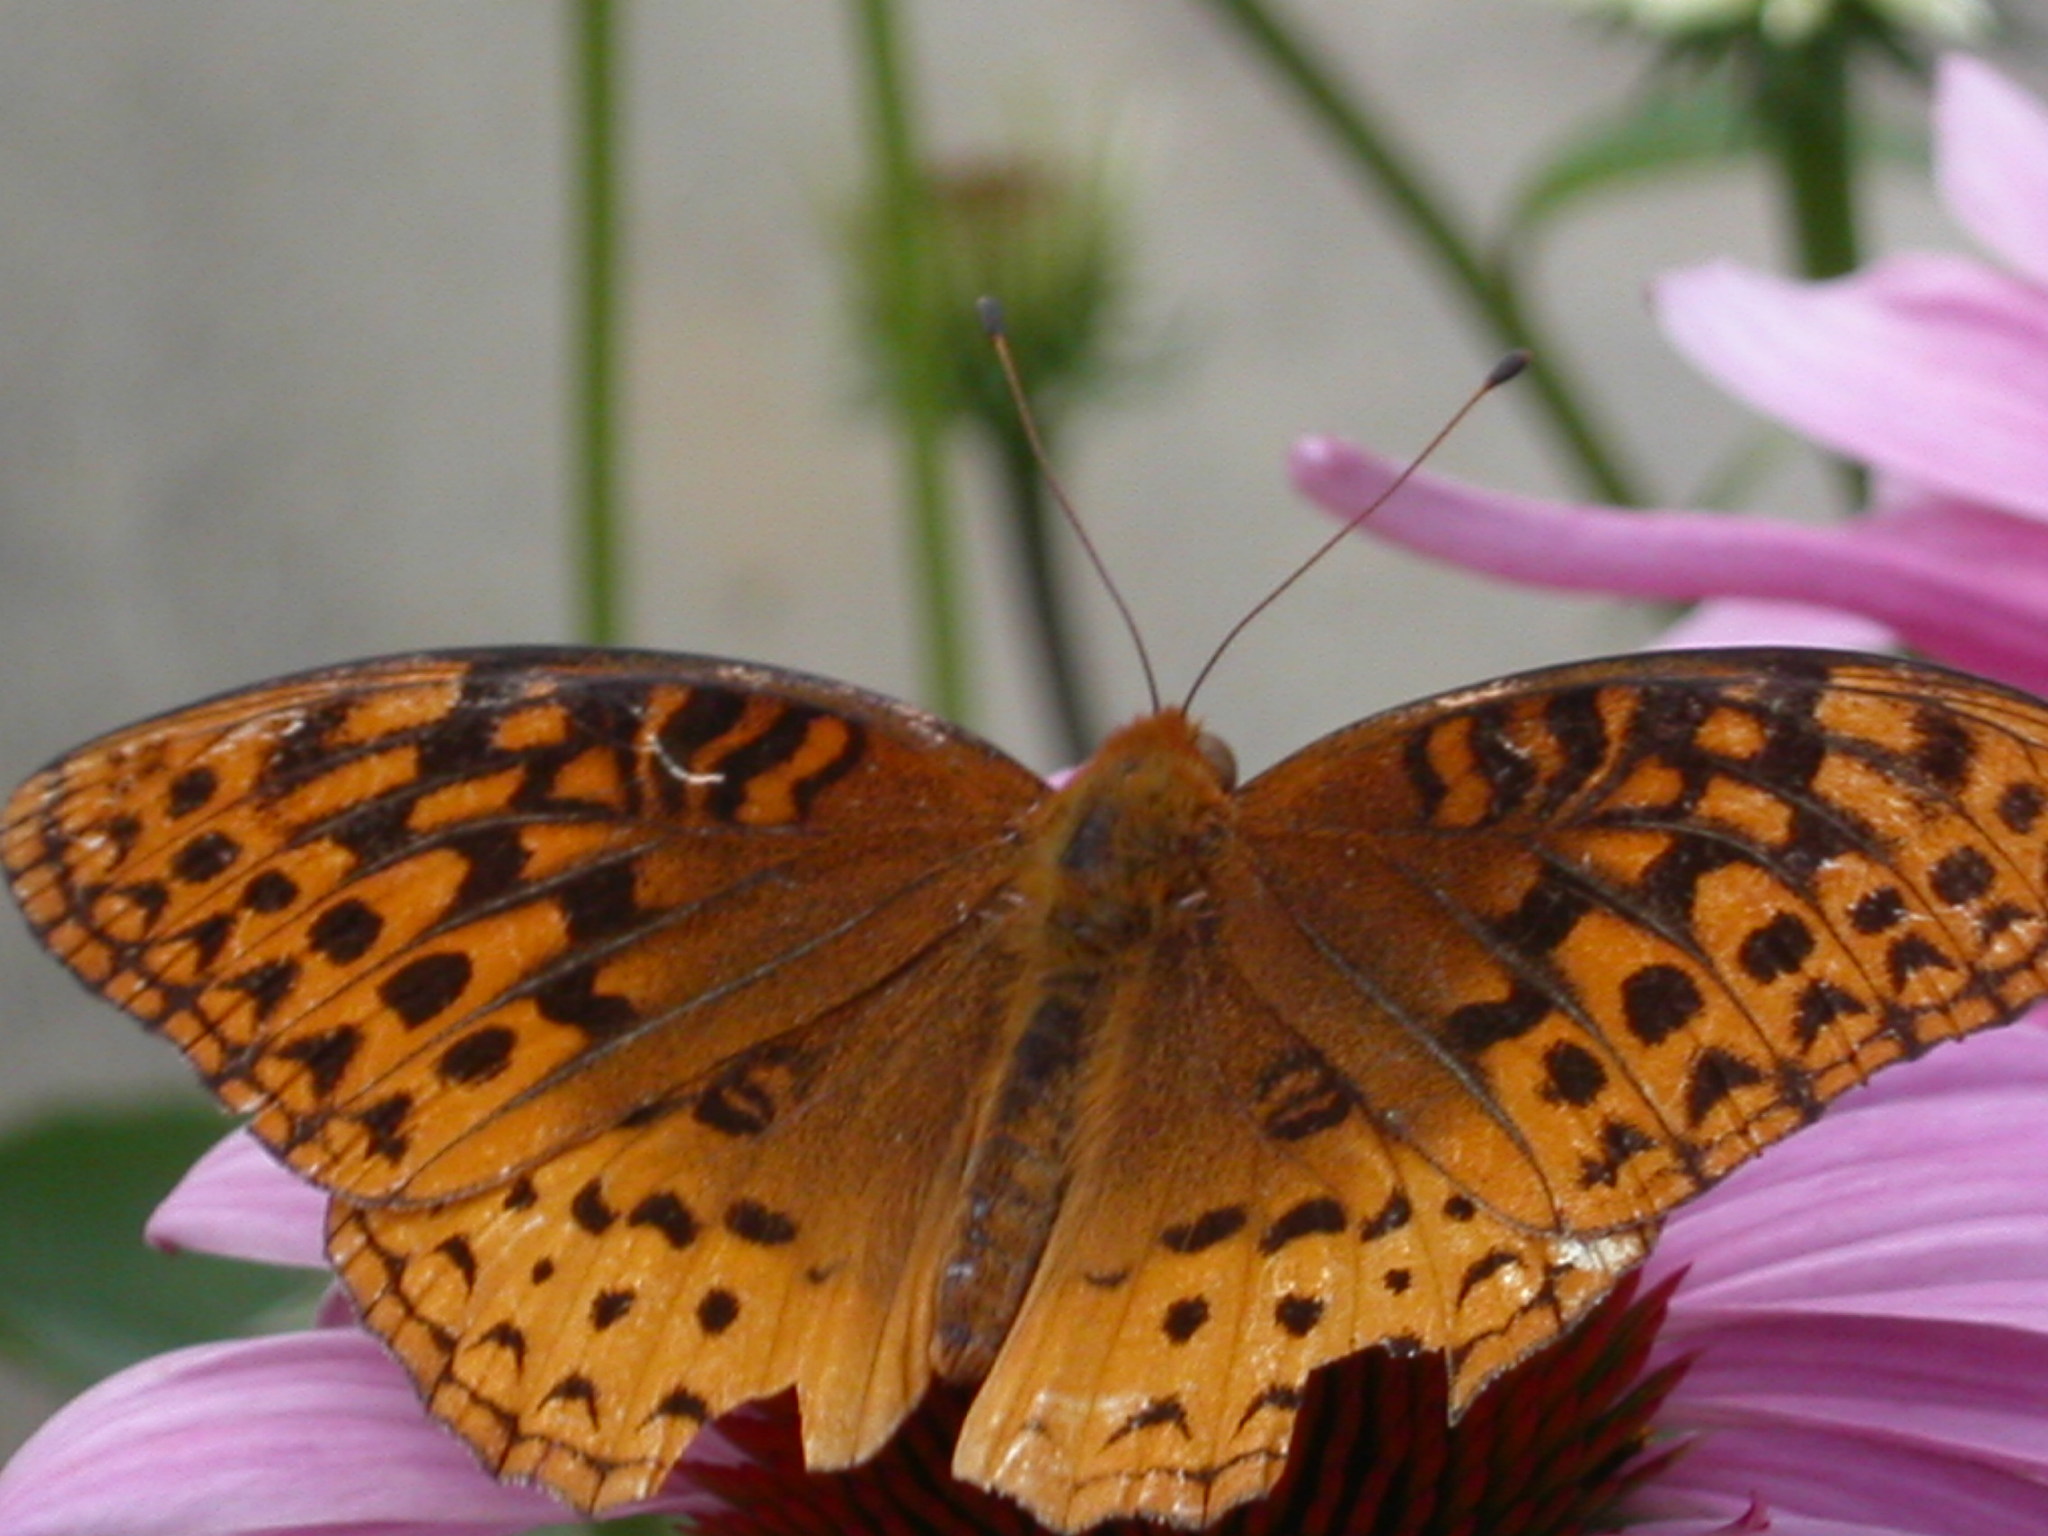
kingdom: Animalia
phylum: Arthropoda
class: Insecta
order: Lepidoptera
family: Nymphalidae
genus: Speyeria
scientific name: Speyeria cybele
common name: Great spangled fritillary
